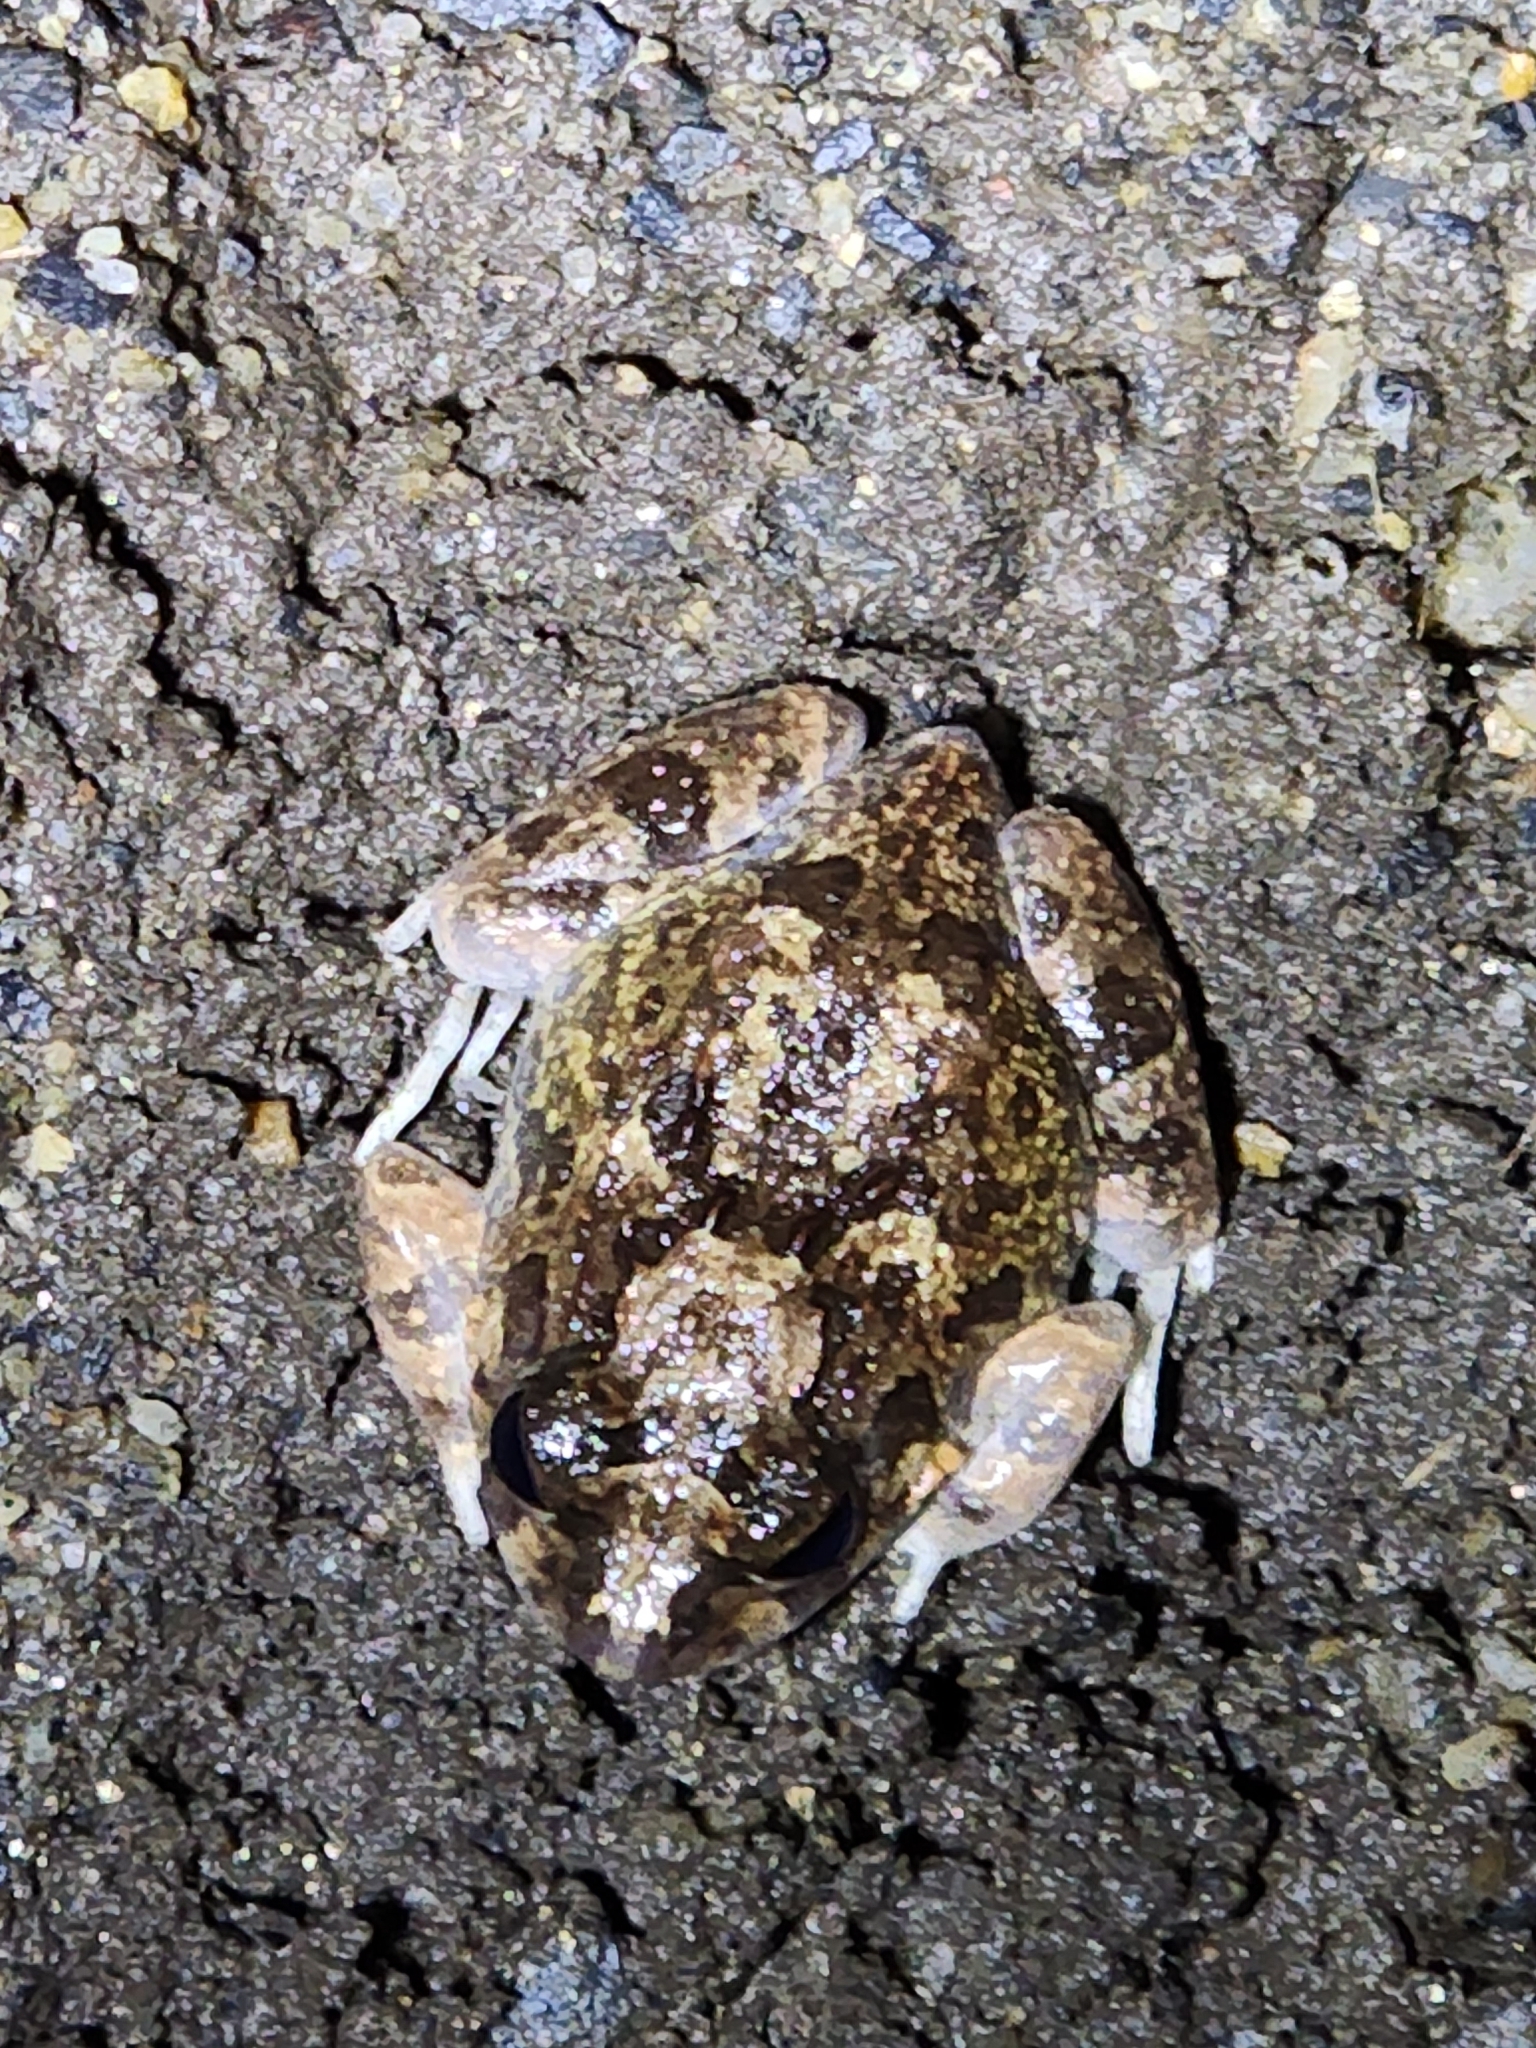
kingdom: Animalia
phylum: Chordata
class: Amphibia
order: Anura
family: Limnodynastidae
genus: Platyplectrum
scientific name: Platyplectrum ornatum
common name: Ornate burrowing frog
